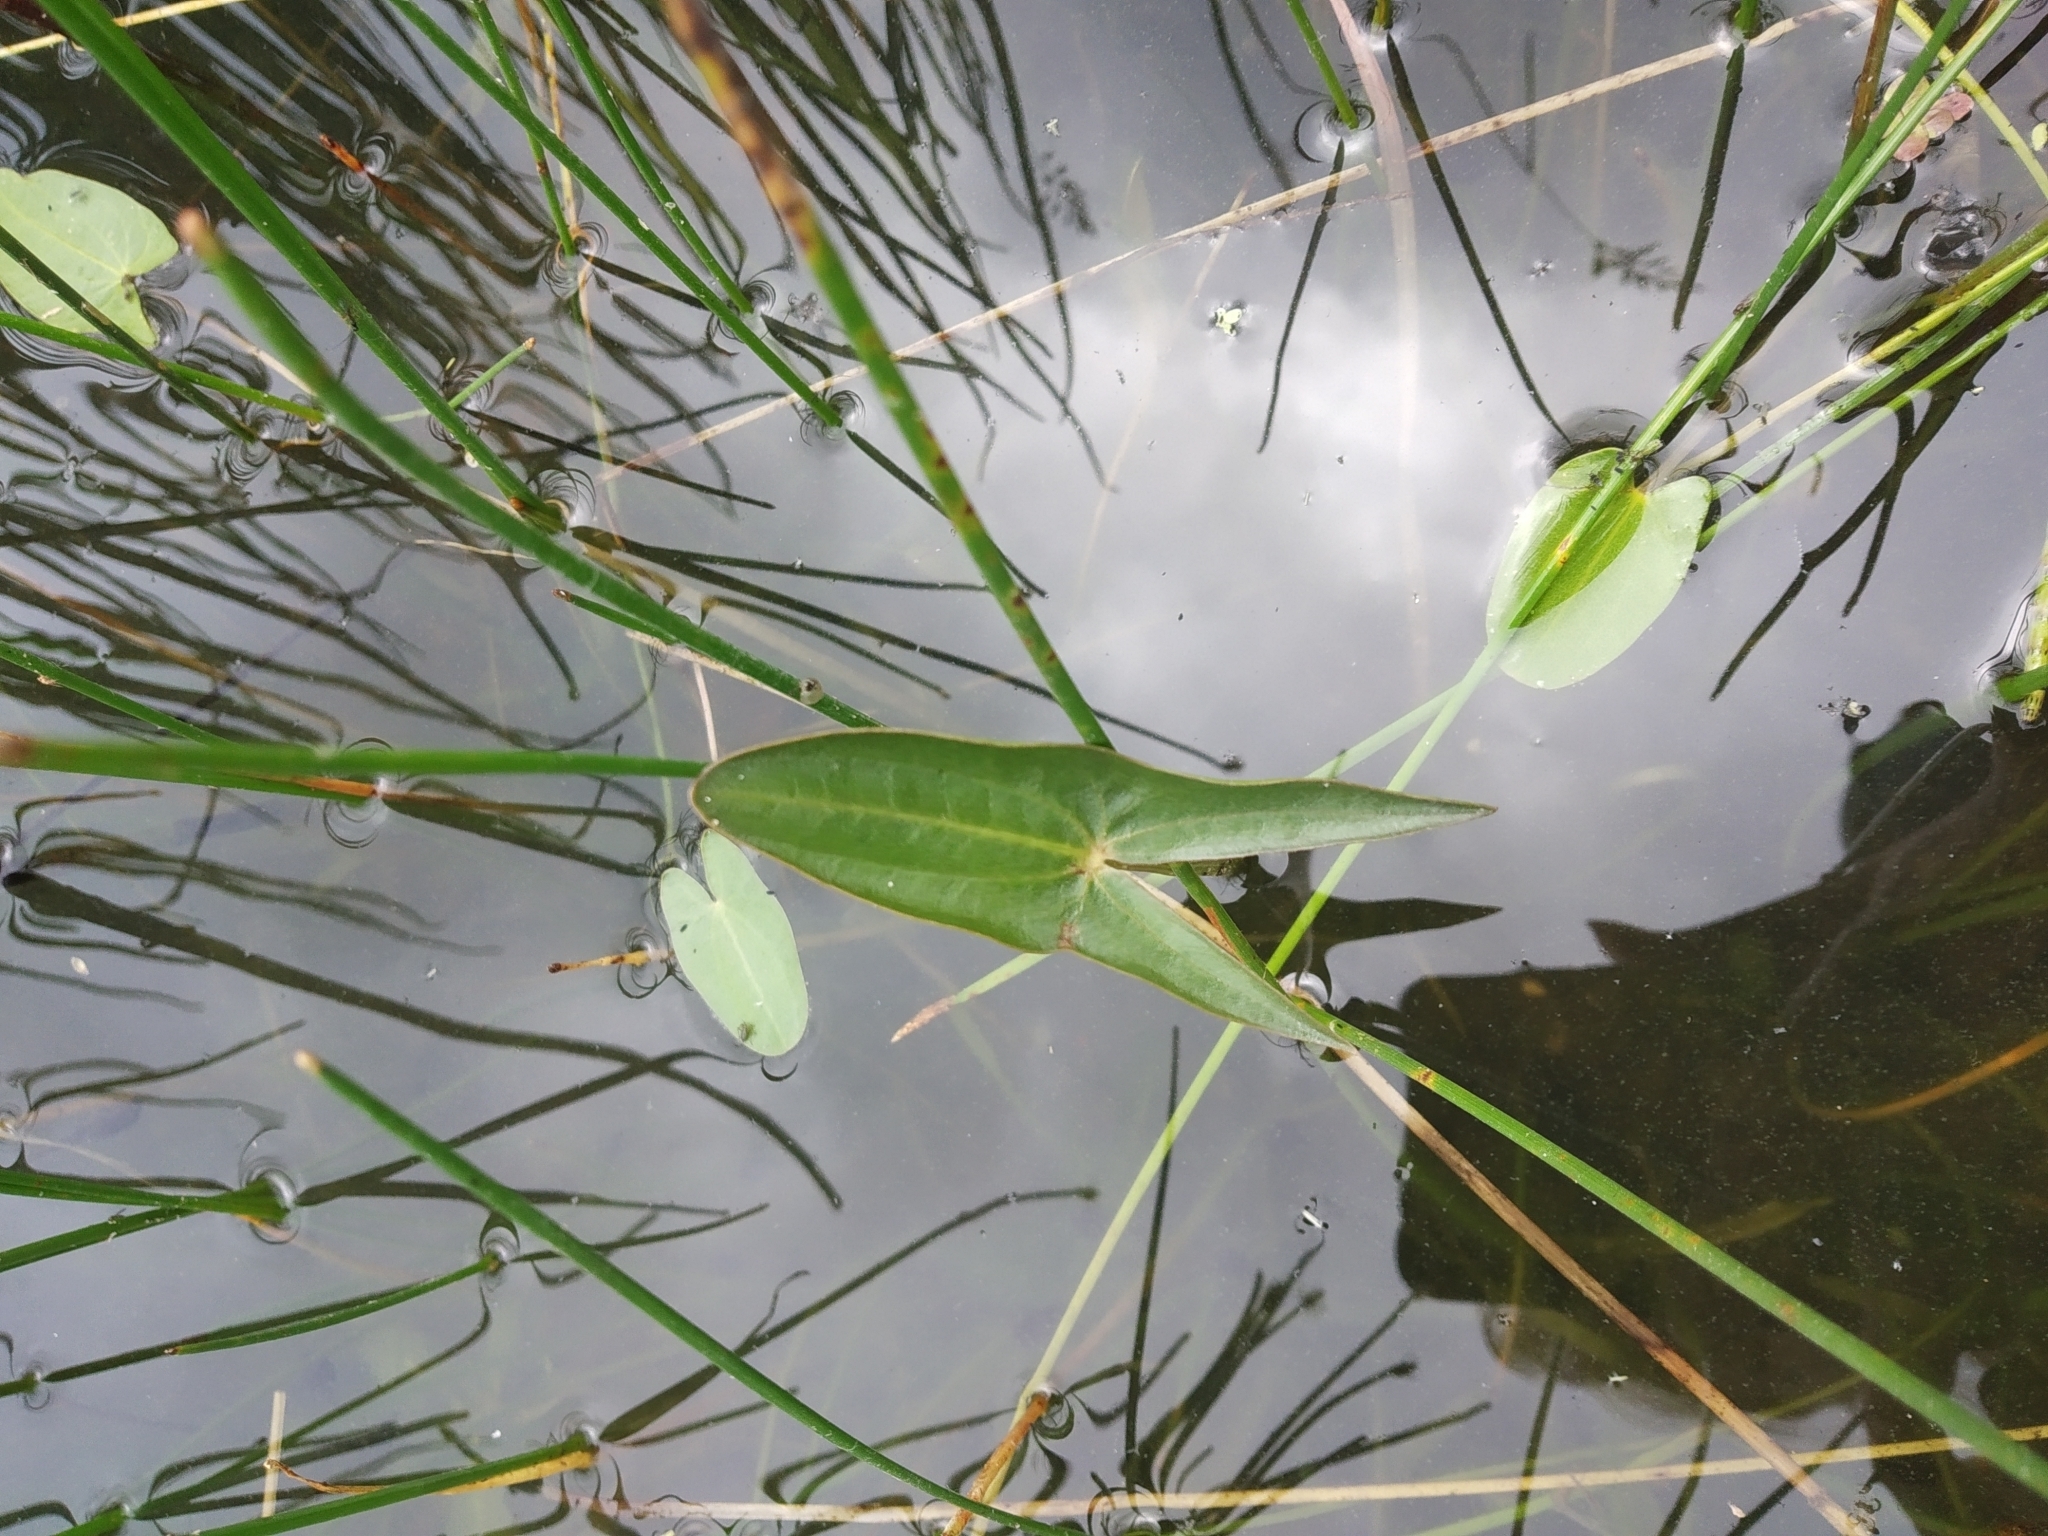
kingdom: Plantae
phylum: Tracheophyta
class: Liliopsida
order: Alismatales
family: Alismataceae
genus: Sagittaria
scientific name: Sagittaria sagittifolia
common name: Arrowhead
